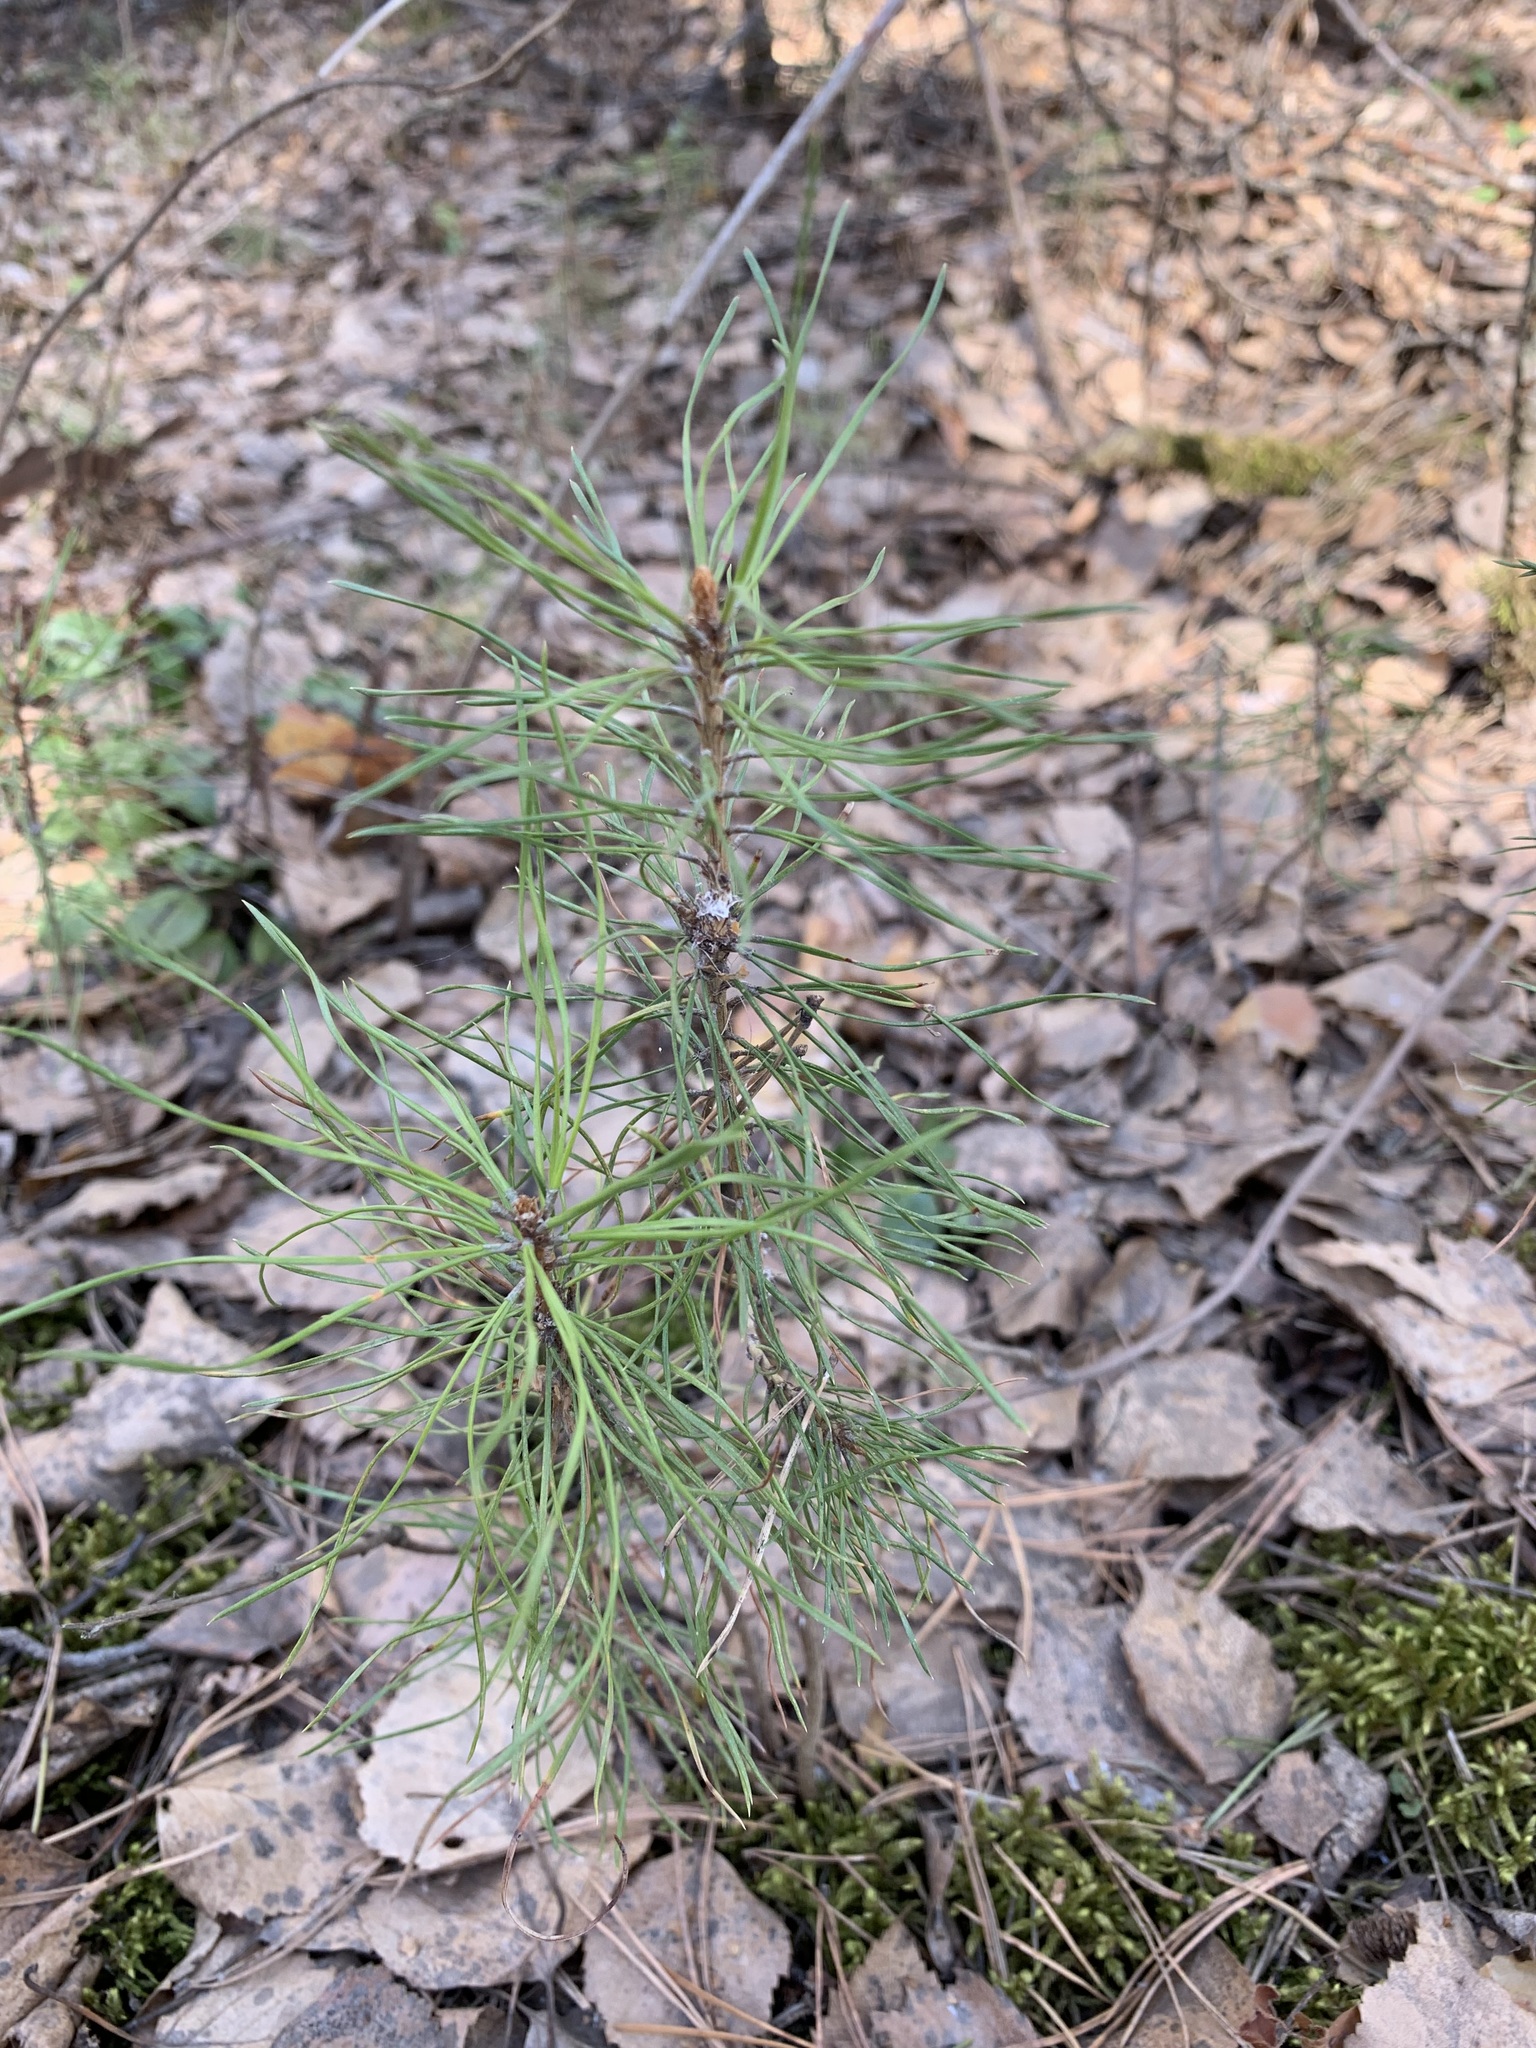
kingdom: Plantae
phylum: Tracheophyta
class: Pinopsida
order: Pinales
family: Pinaceae
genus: Pinus
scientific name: Pinus sylvestris
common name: Scots pine
